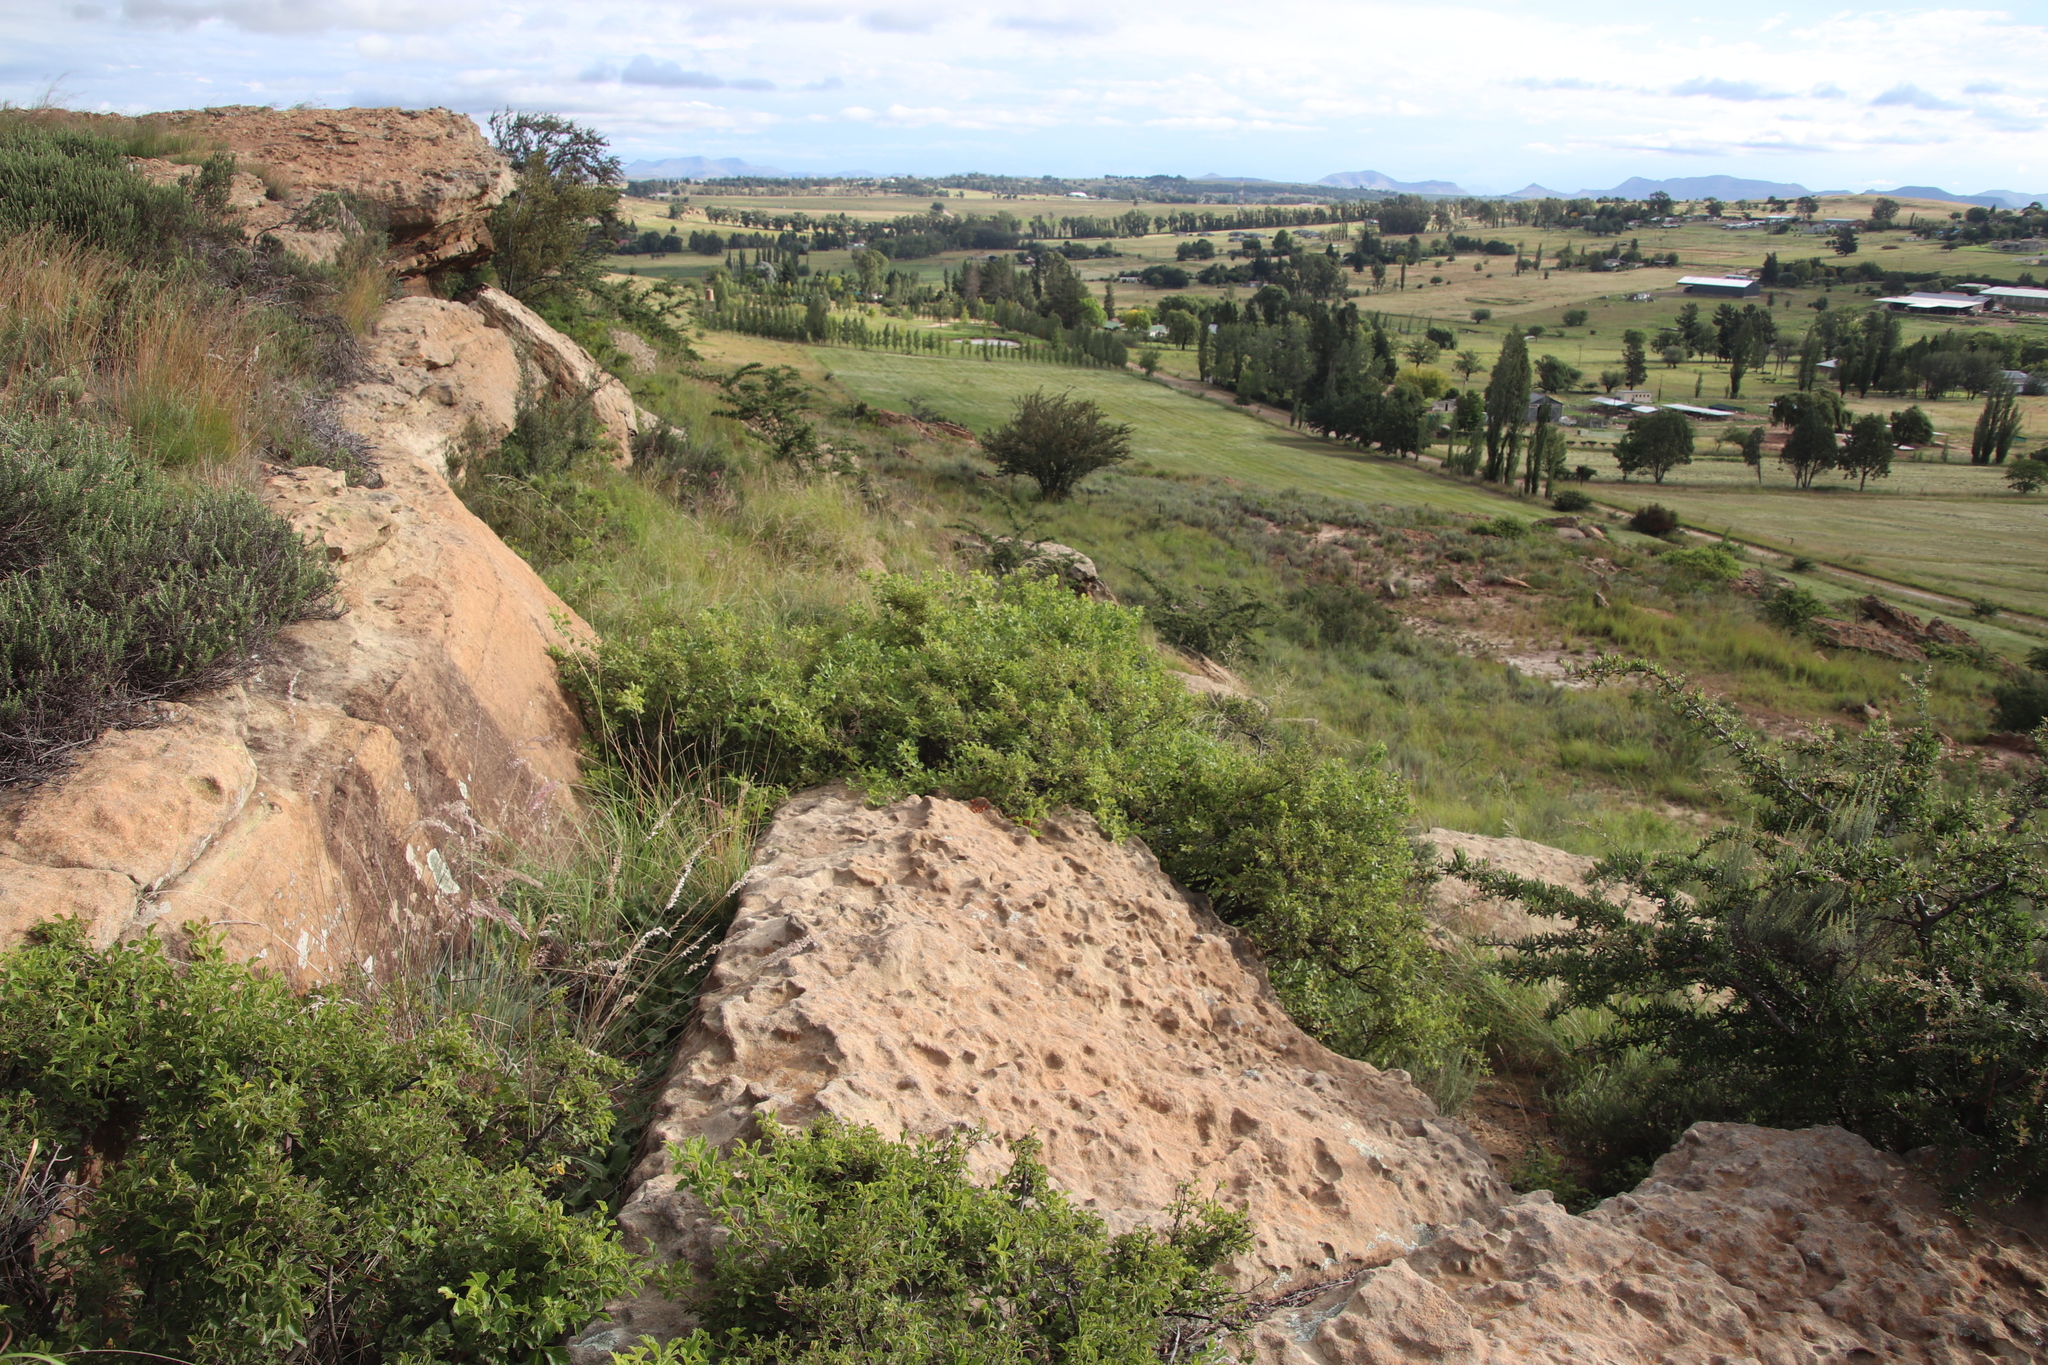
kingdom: Plantae
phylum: Tracheophyta
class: Magnoliopsida
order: Sapindales
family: Anacardiaceae
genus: Searsia
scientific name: Searsia dentata
